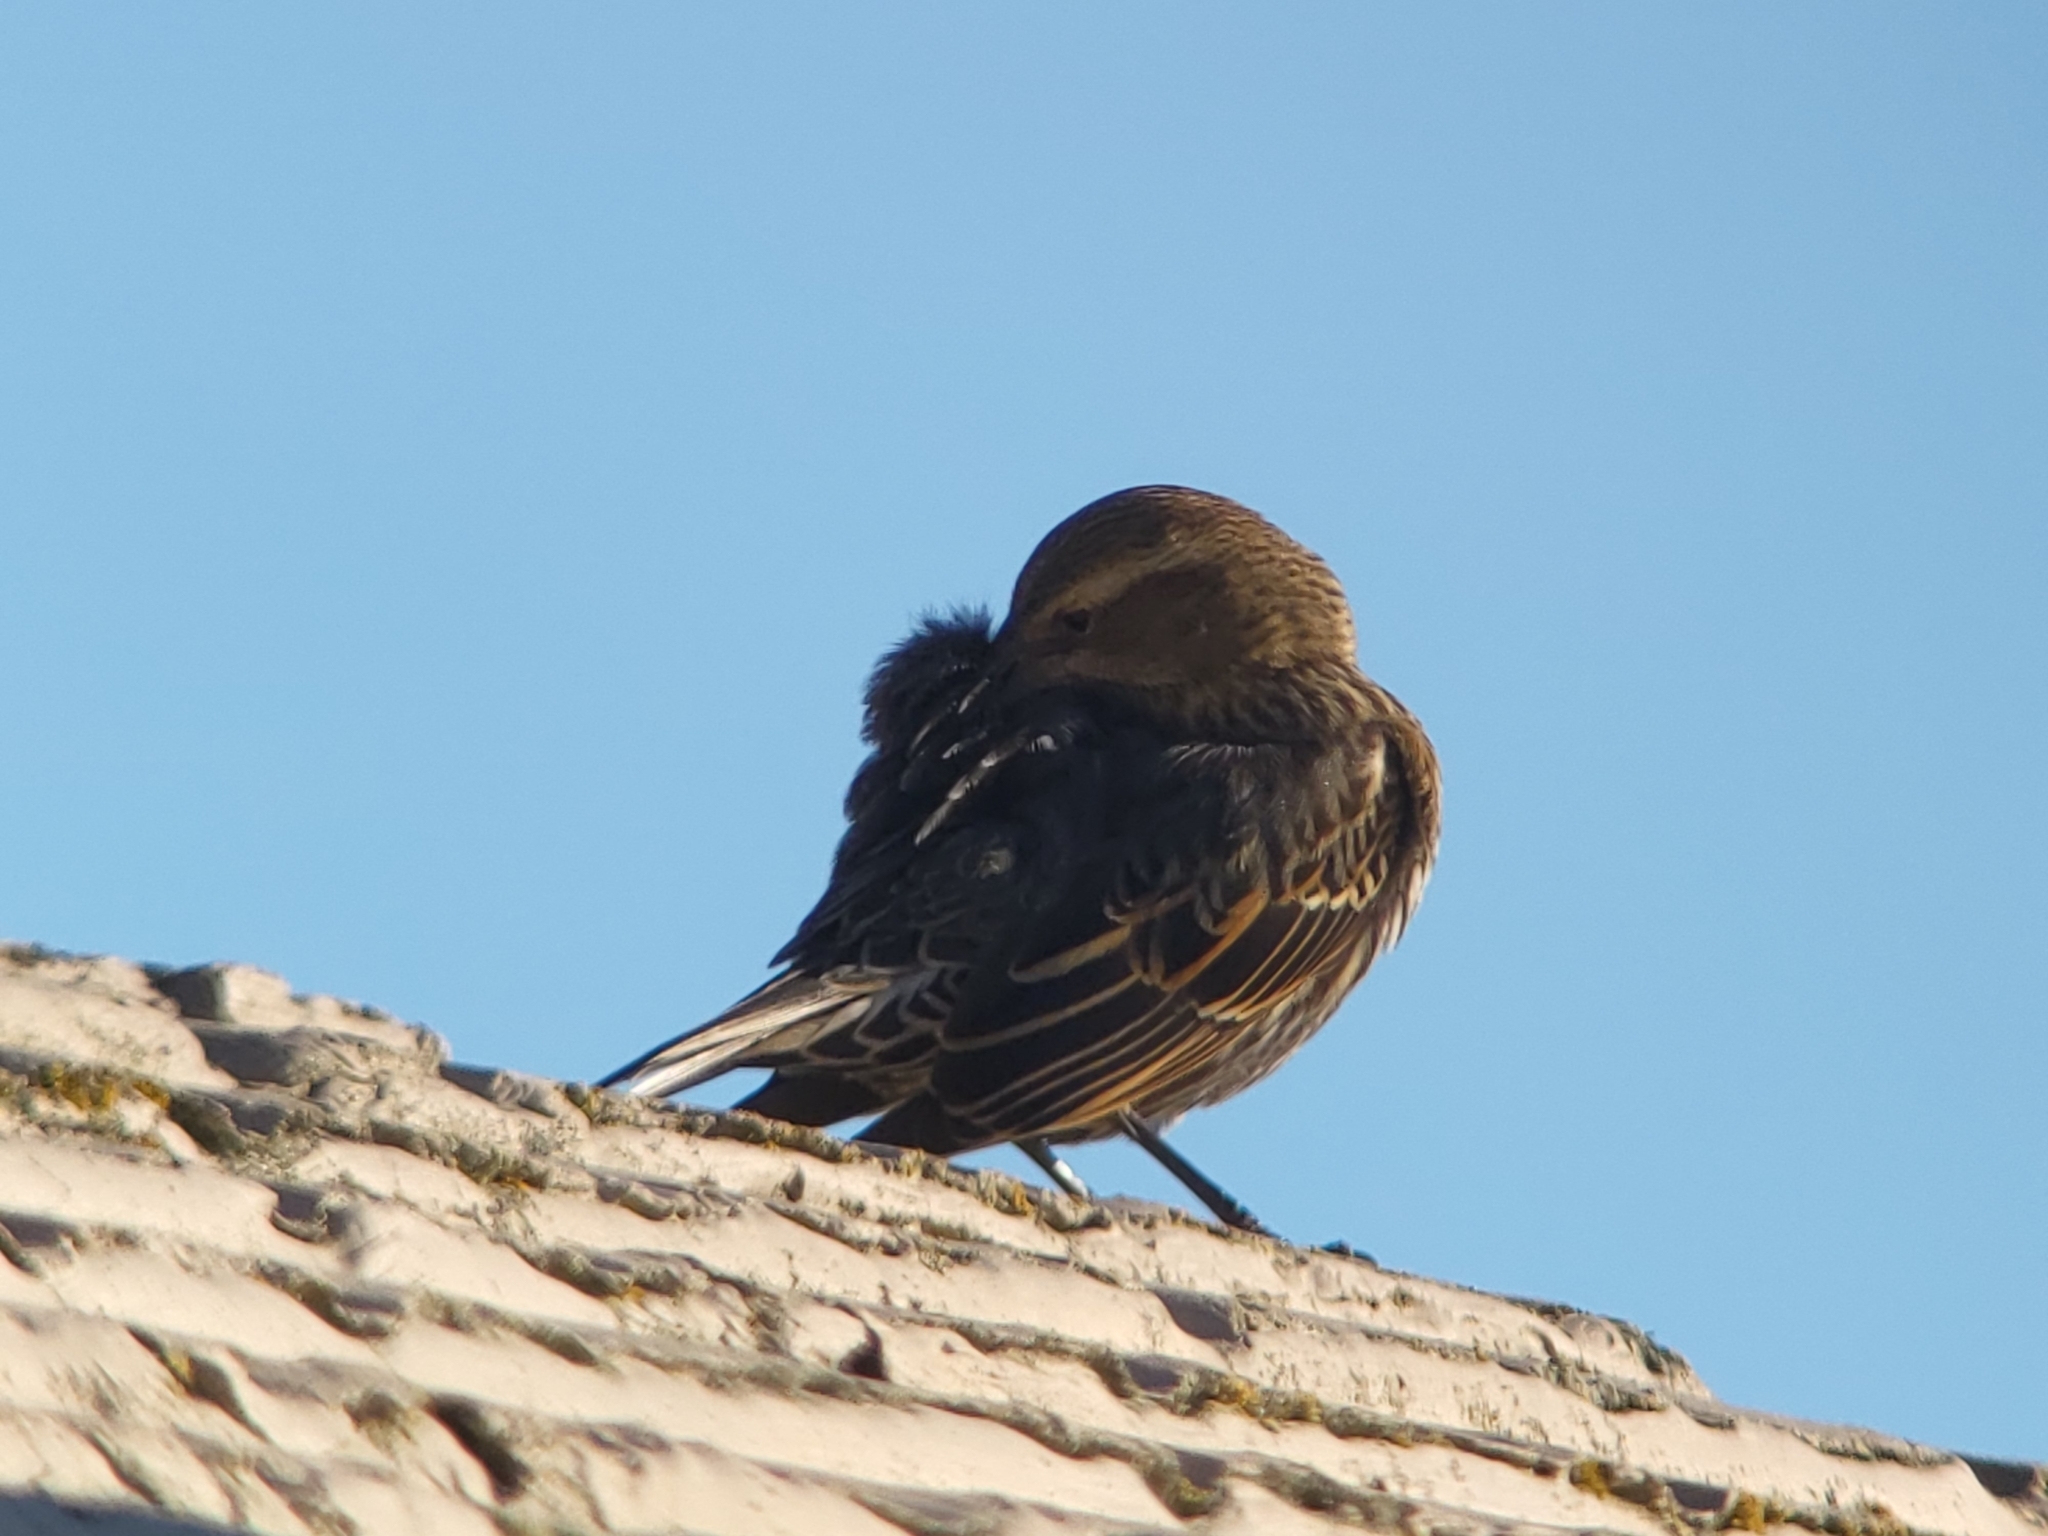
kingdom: Animalia
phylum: Chordata
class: Aves
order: Passeriformes
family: Icteridae
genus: Agelaius
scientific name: Agelaius phoeniceus
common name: Red-winged blackbird
